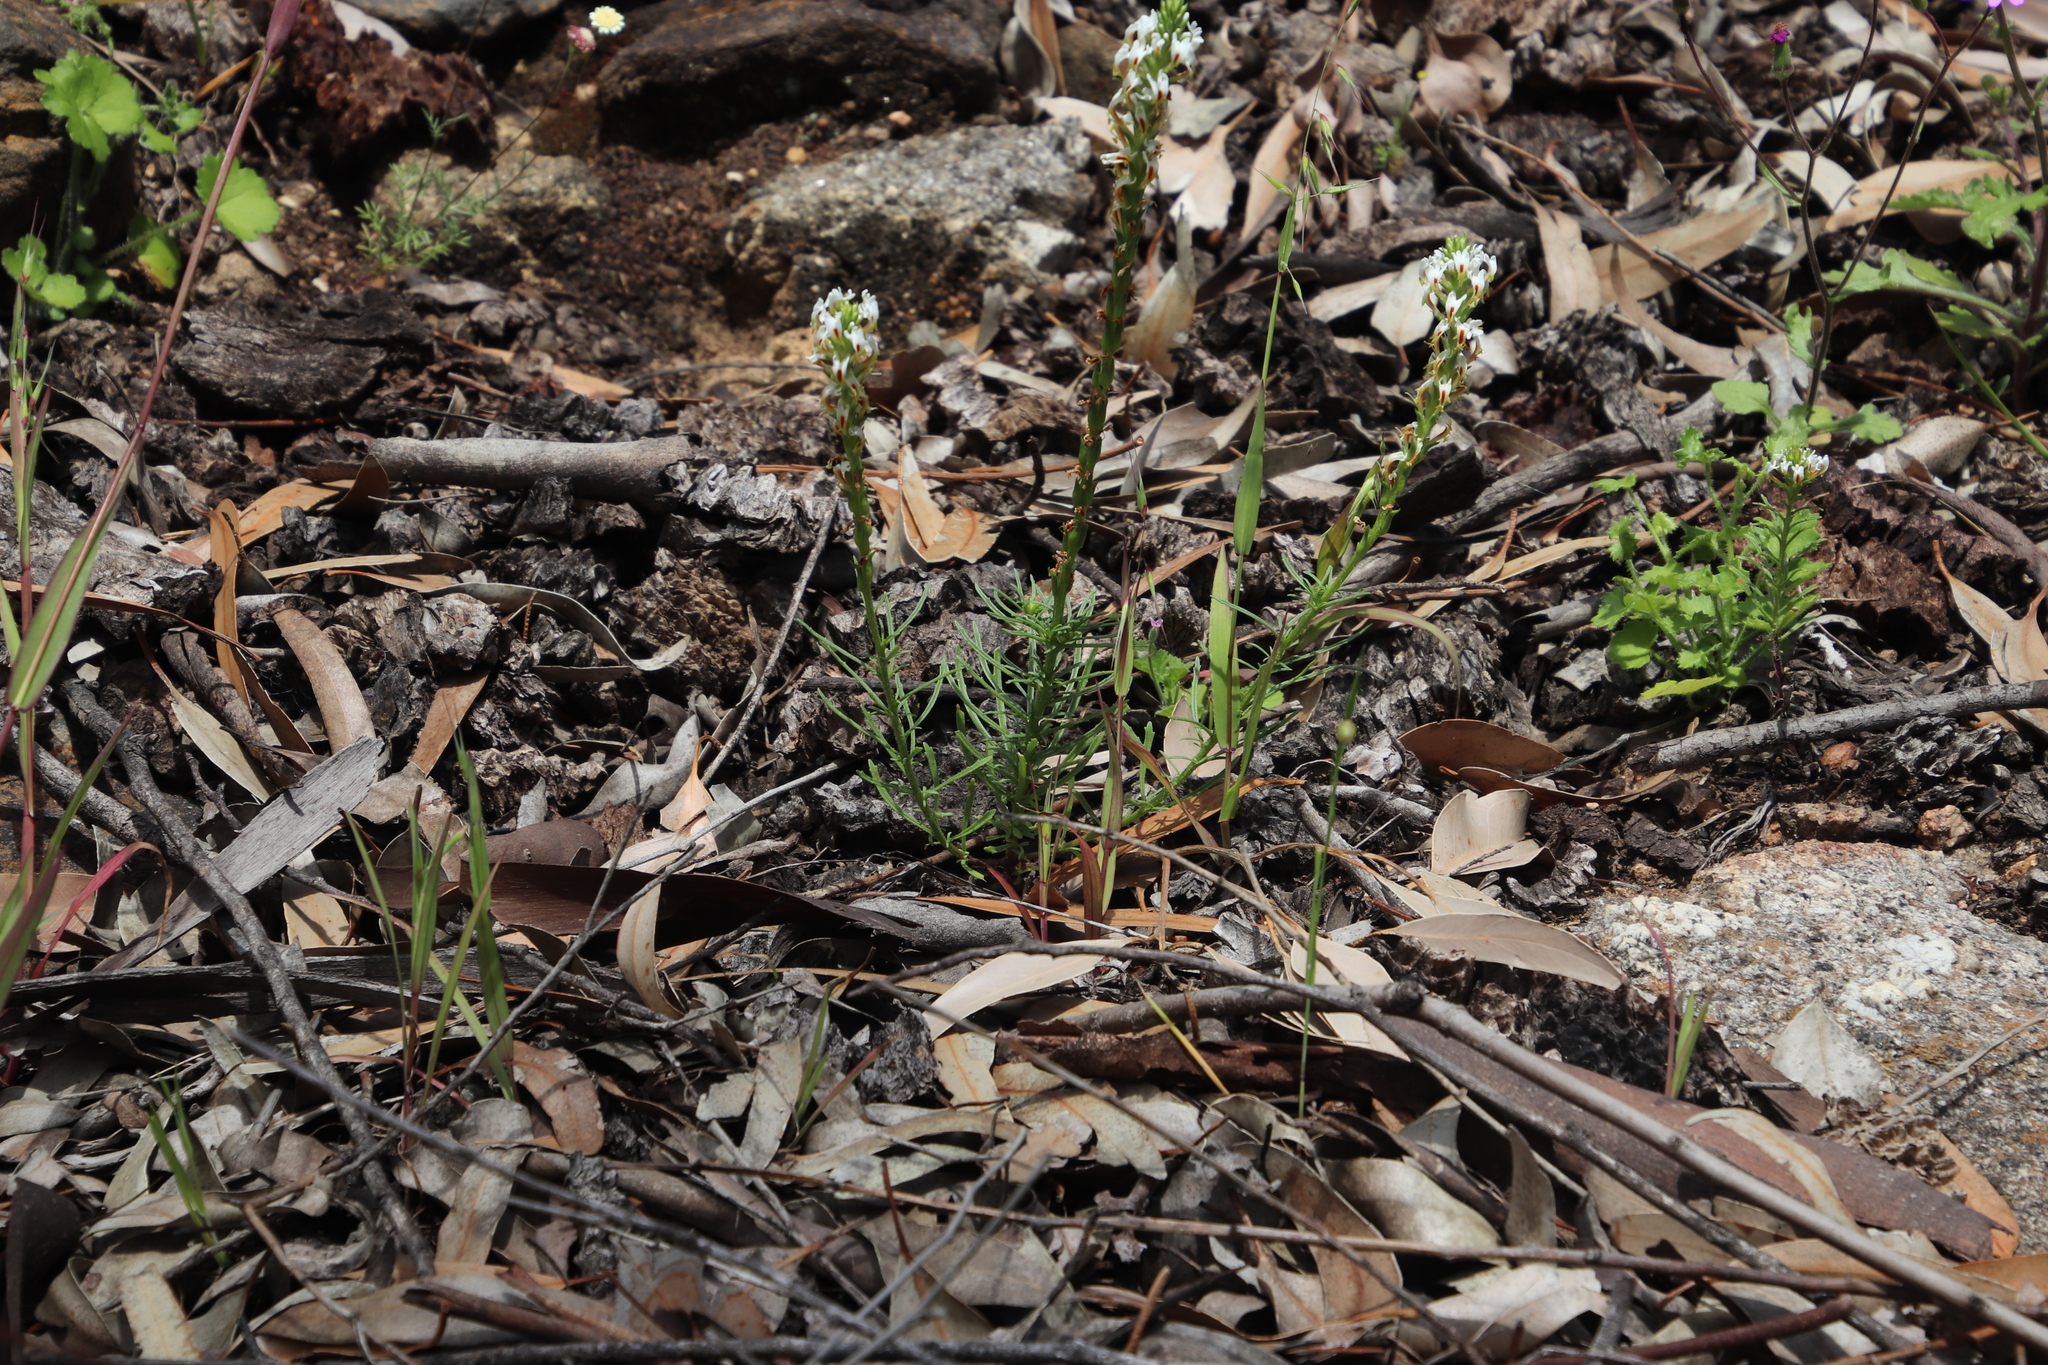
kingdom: Plantae
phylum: Tracheophyta
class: Magnoliopsida
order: Lamiales
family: Scrophulariaceae
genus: Hebenstretia
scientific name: Hebenstretia repens
